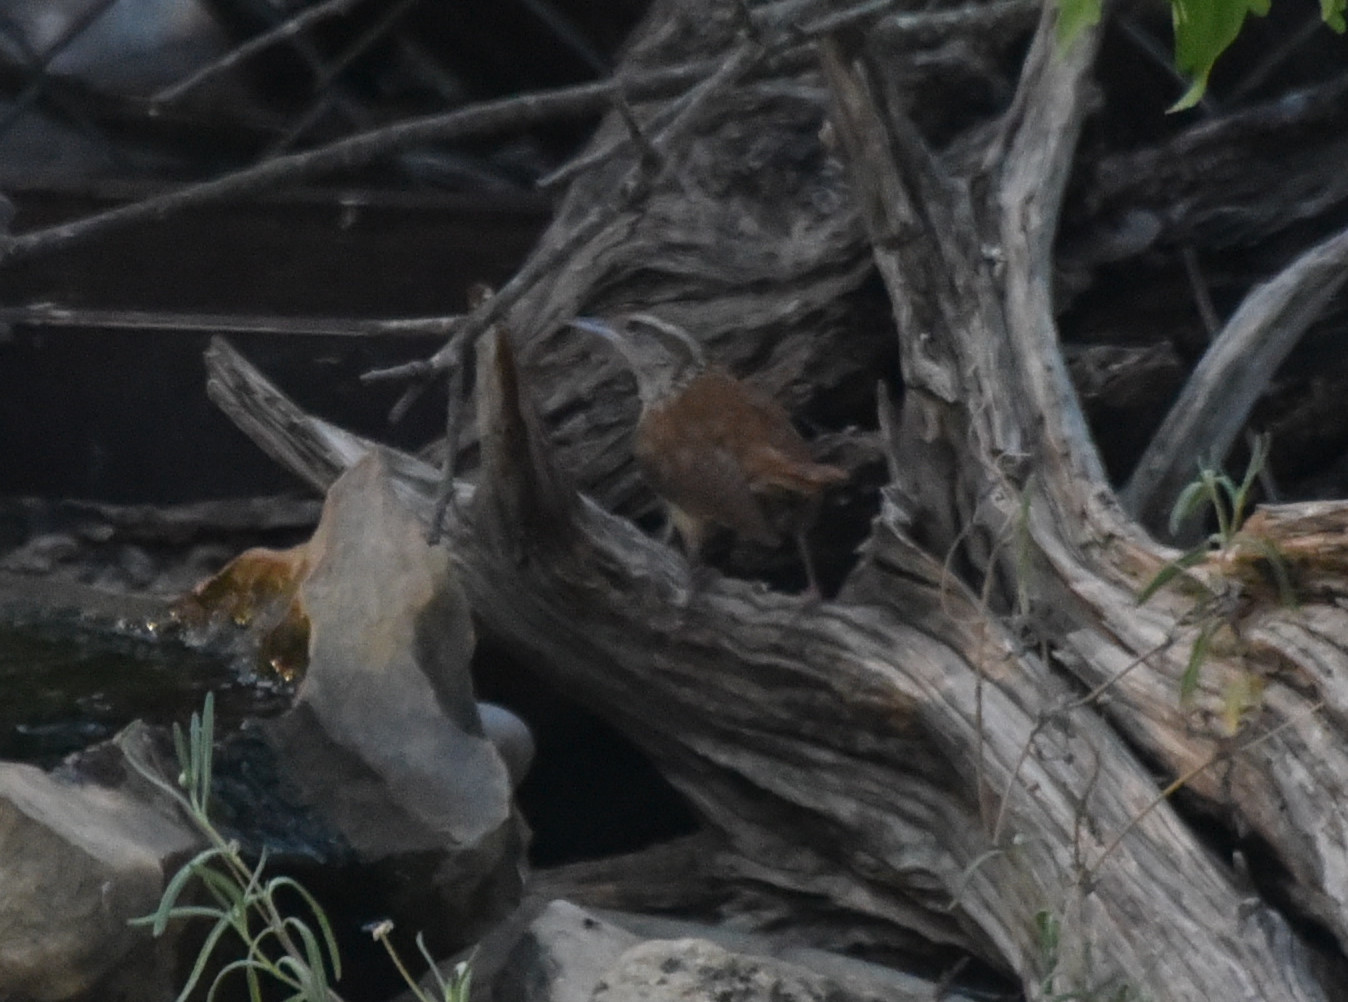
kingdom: Animalia
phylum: Chordata
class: Aves
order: Passeriformes
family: Troglodytidae
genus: Thryothorus
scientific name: Thryothorus ludovicianus
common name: Carolina wren
